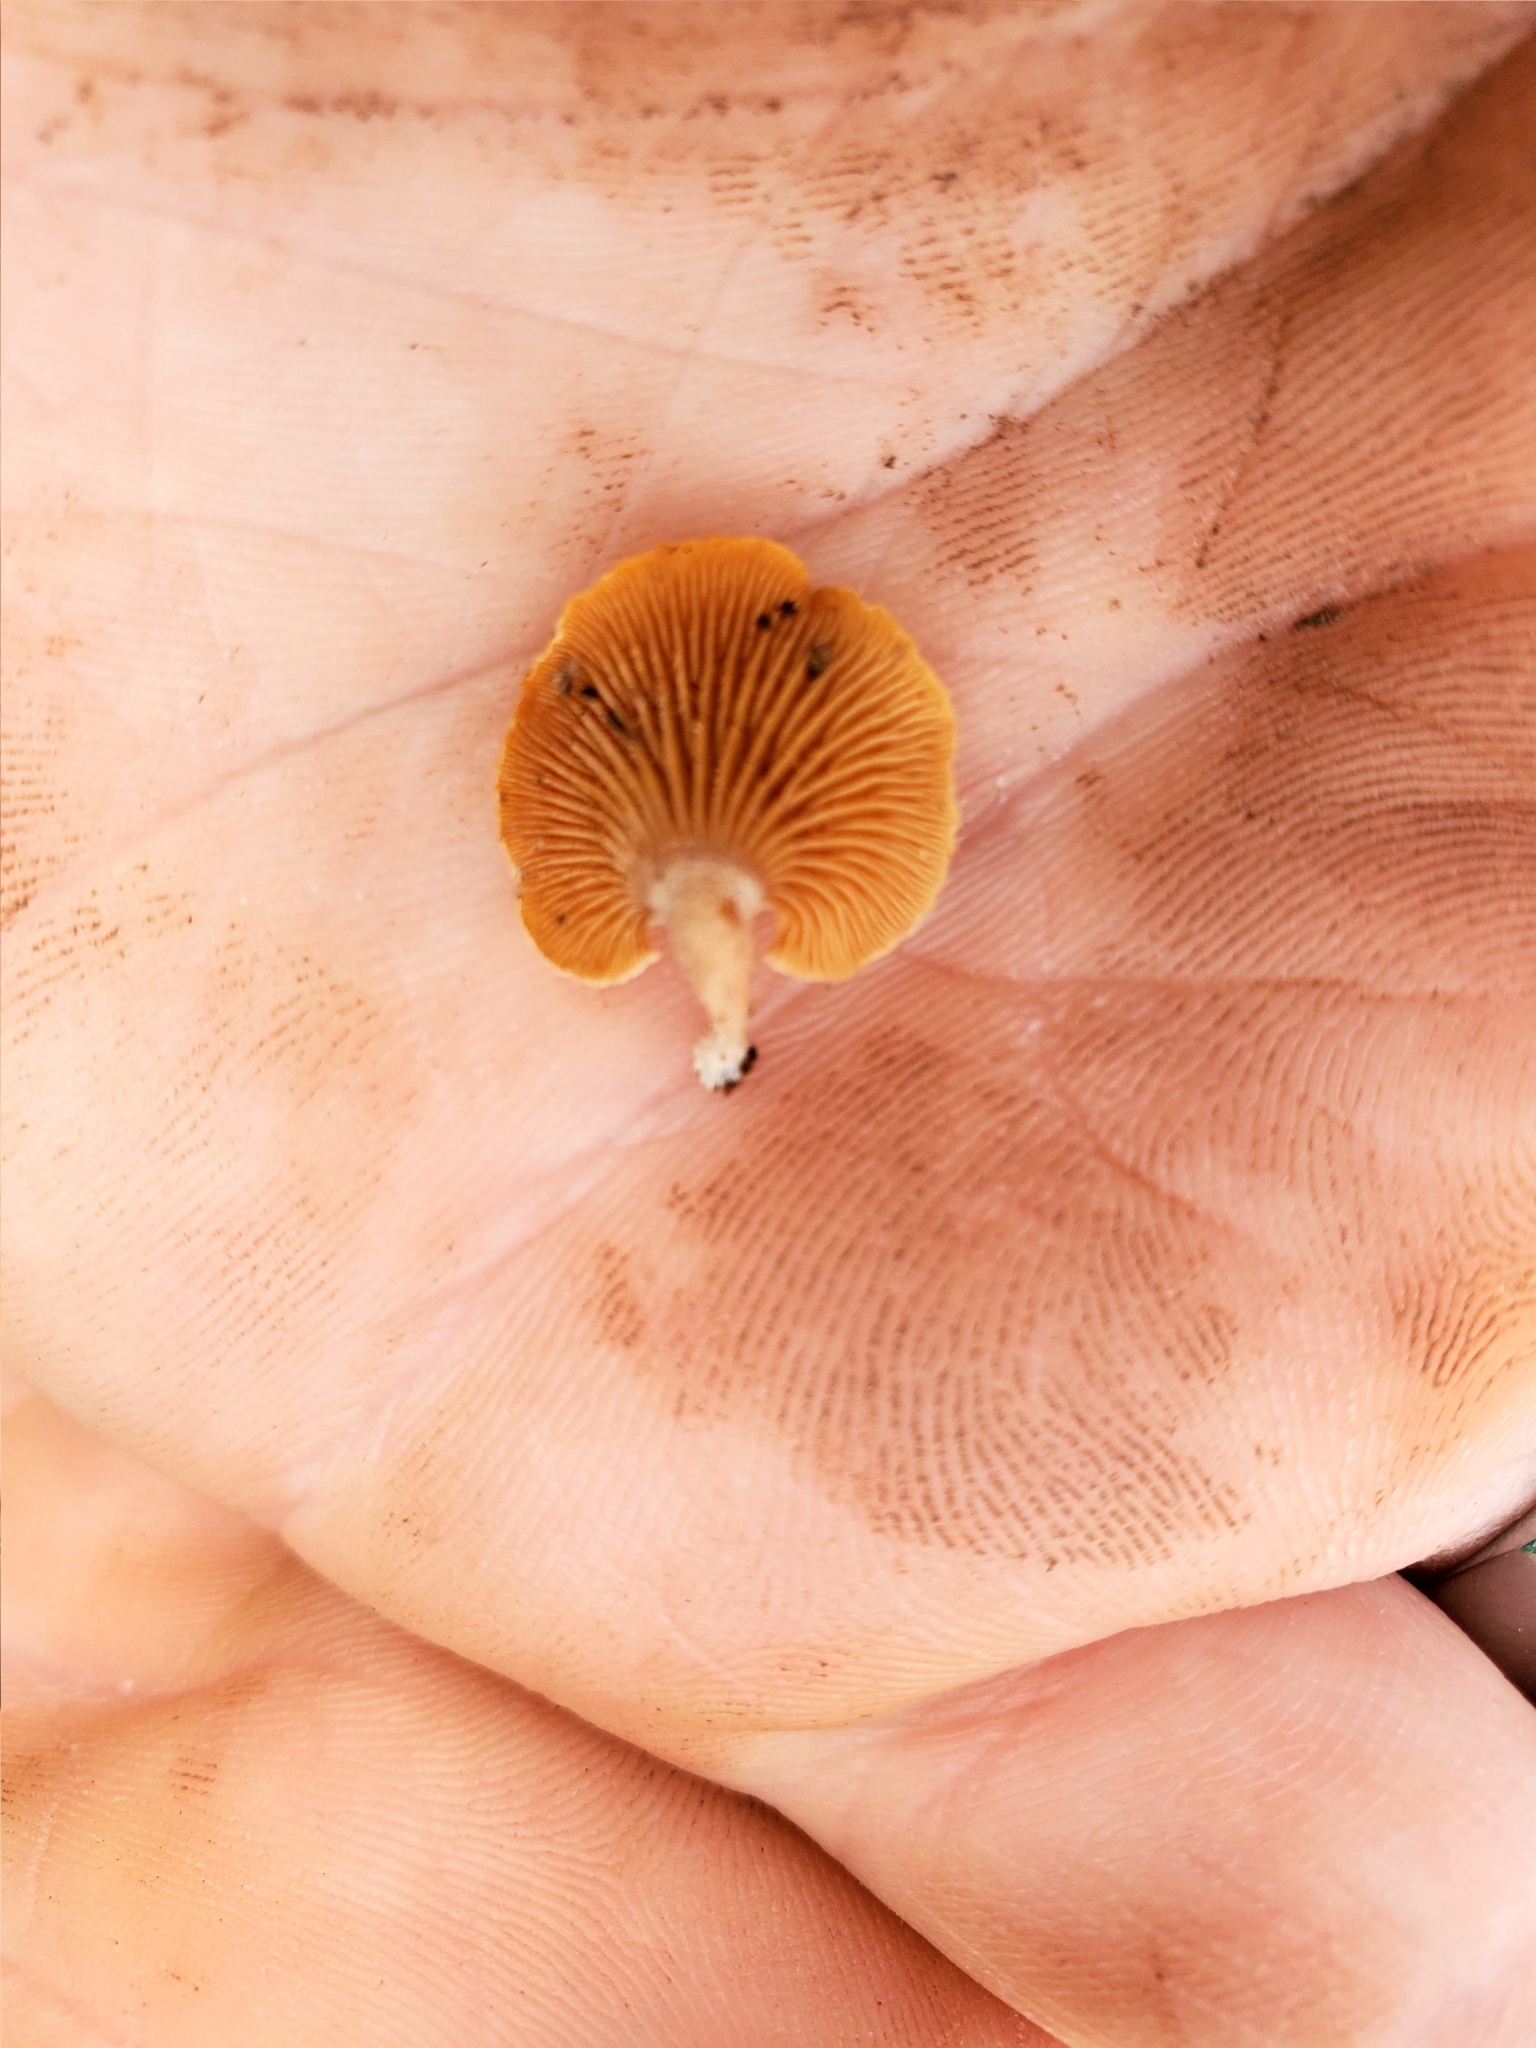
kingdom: Fungi
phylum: Basidiomycota
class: Agaricomycetes
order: Agaricales
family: Mycenaceae
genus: Panellus
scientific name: Panellus stipticus
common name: Bitter oysterling
